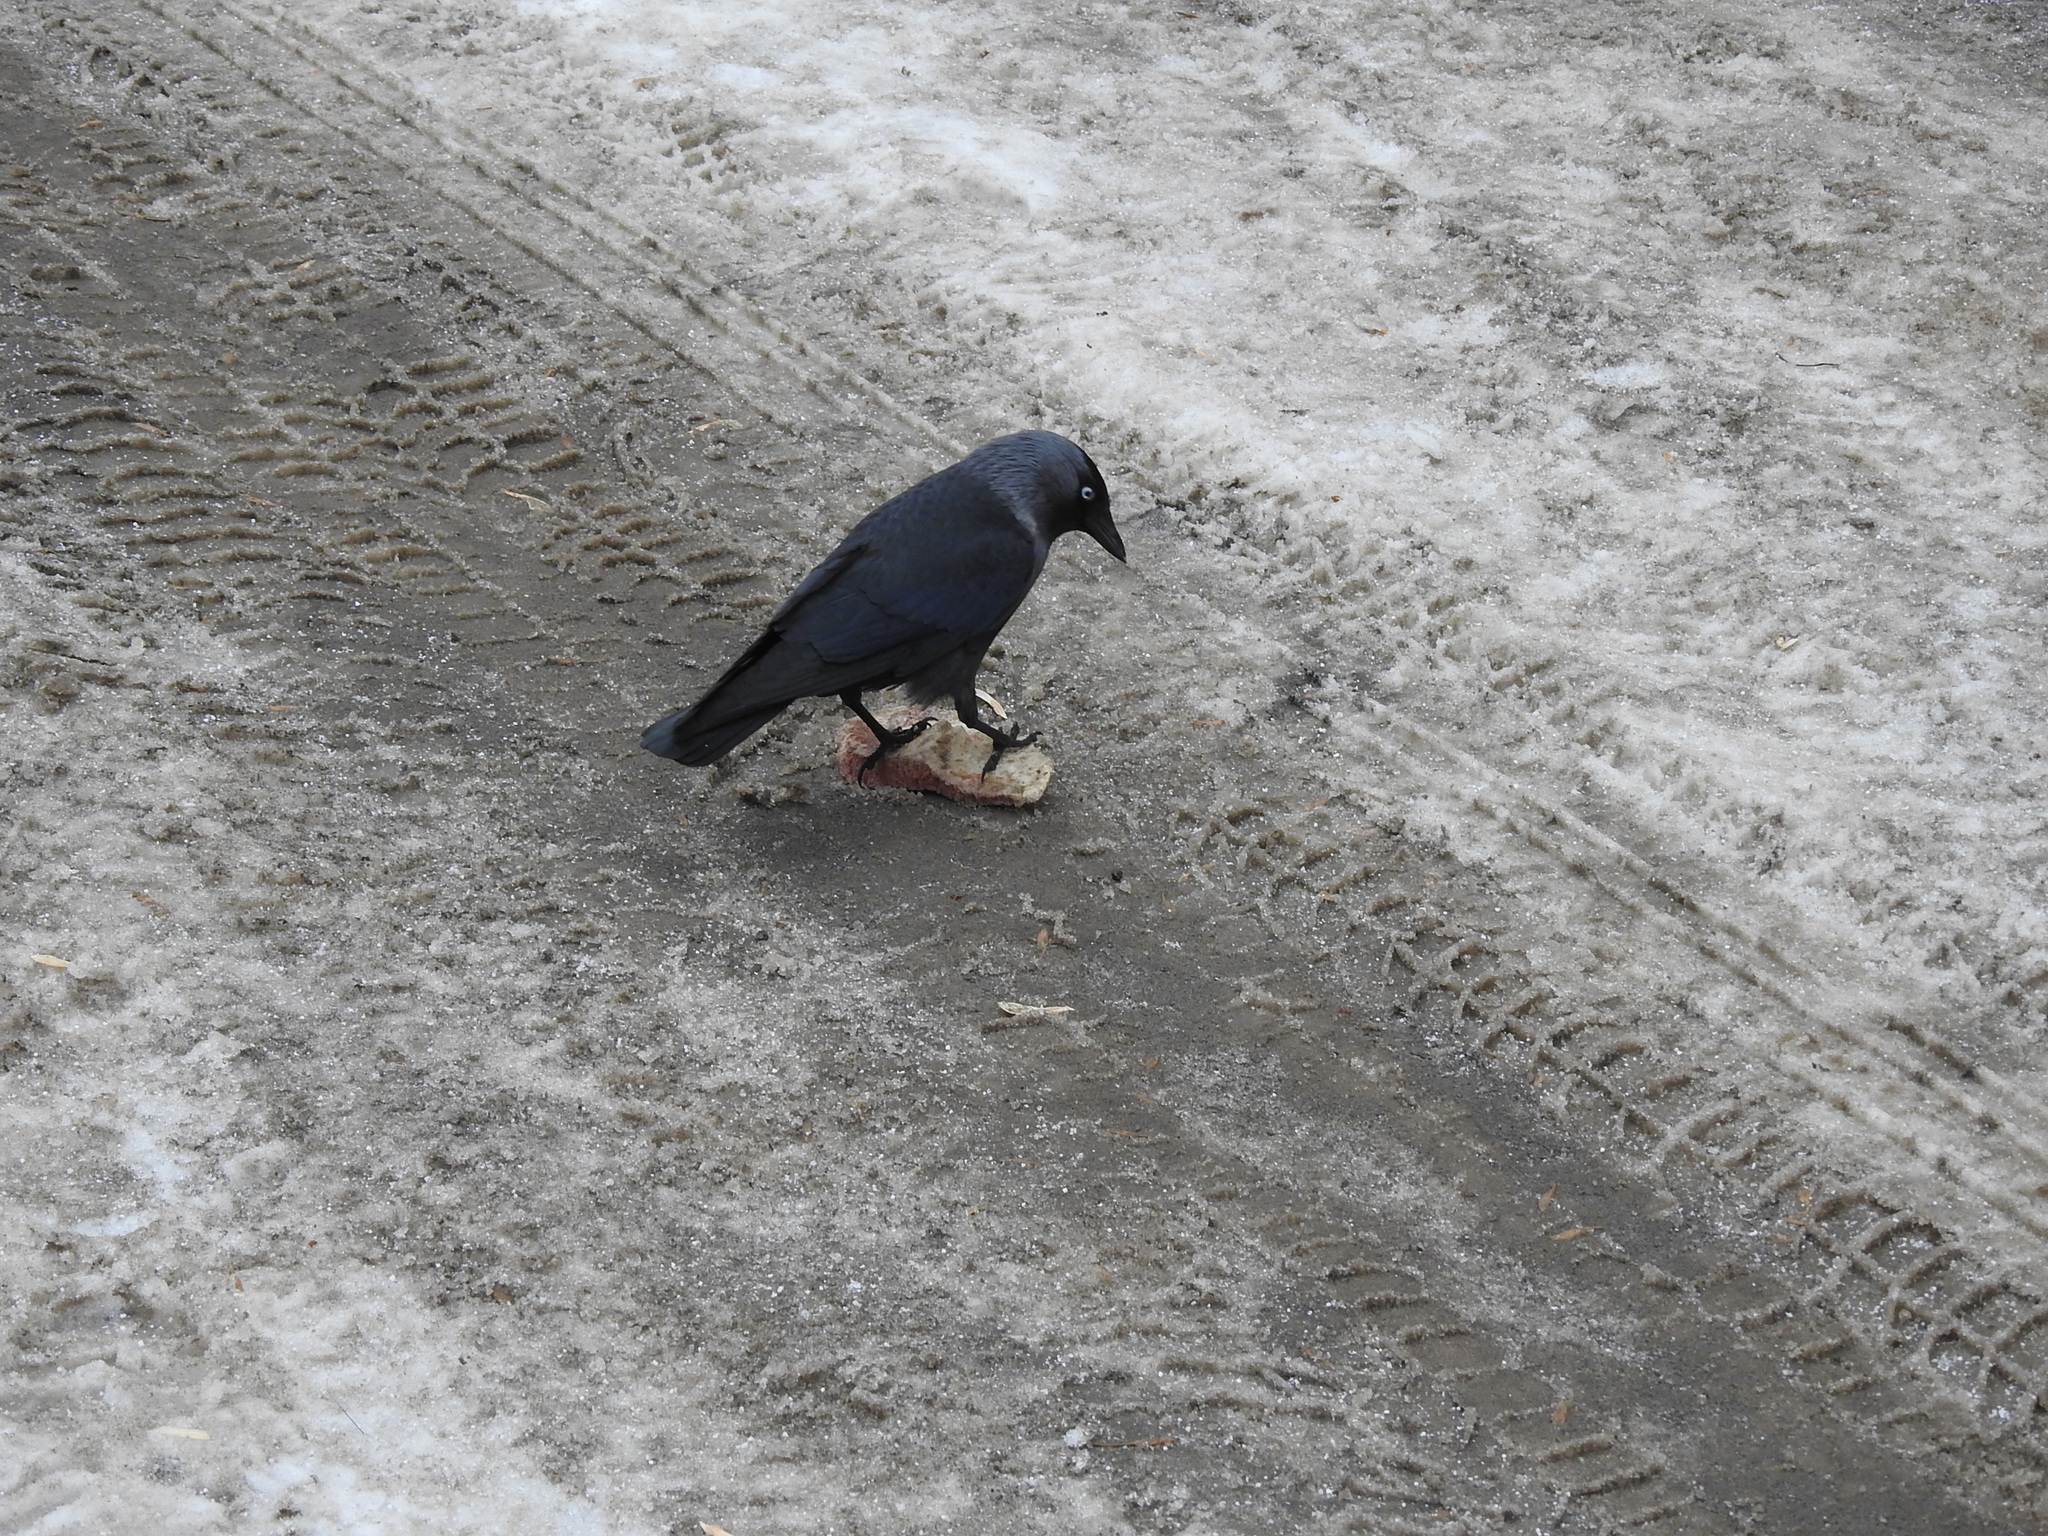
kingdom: Animalia
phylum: Chordata
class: Aves
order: Passeriformes
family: Corvidae
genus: Coloeus
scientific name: Coloeus monedula
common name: Western jackdaw
